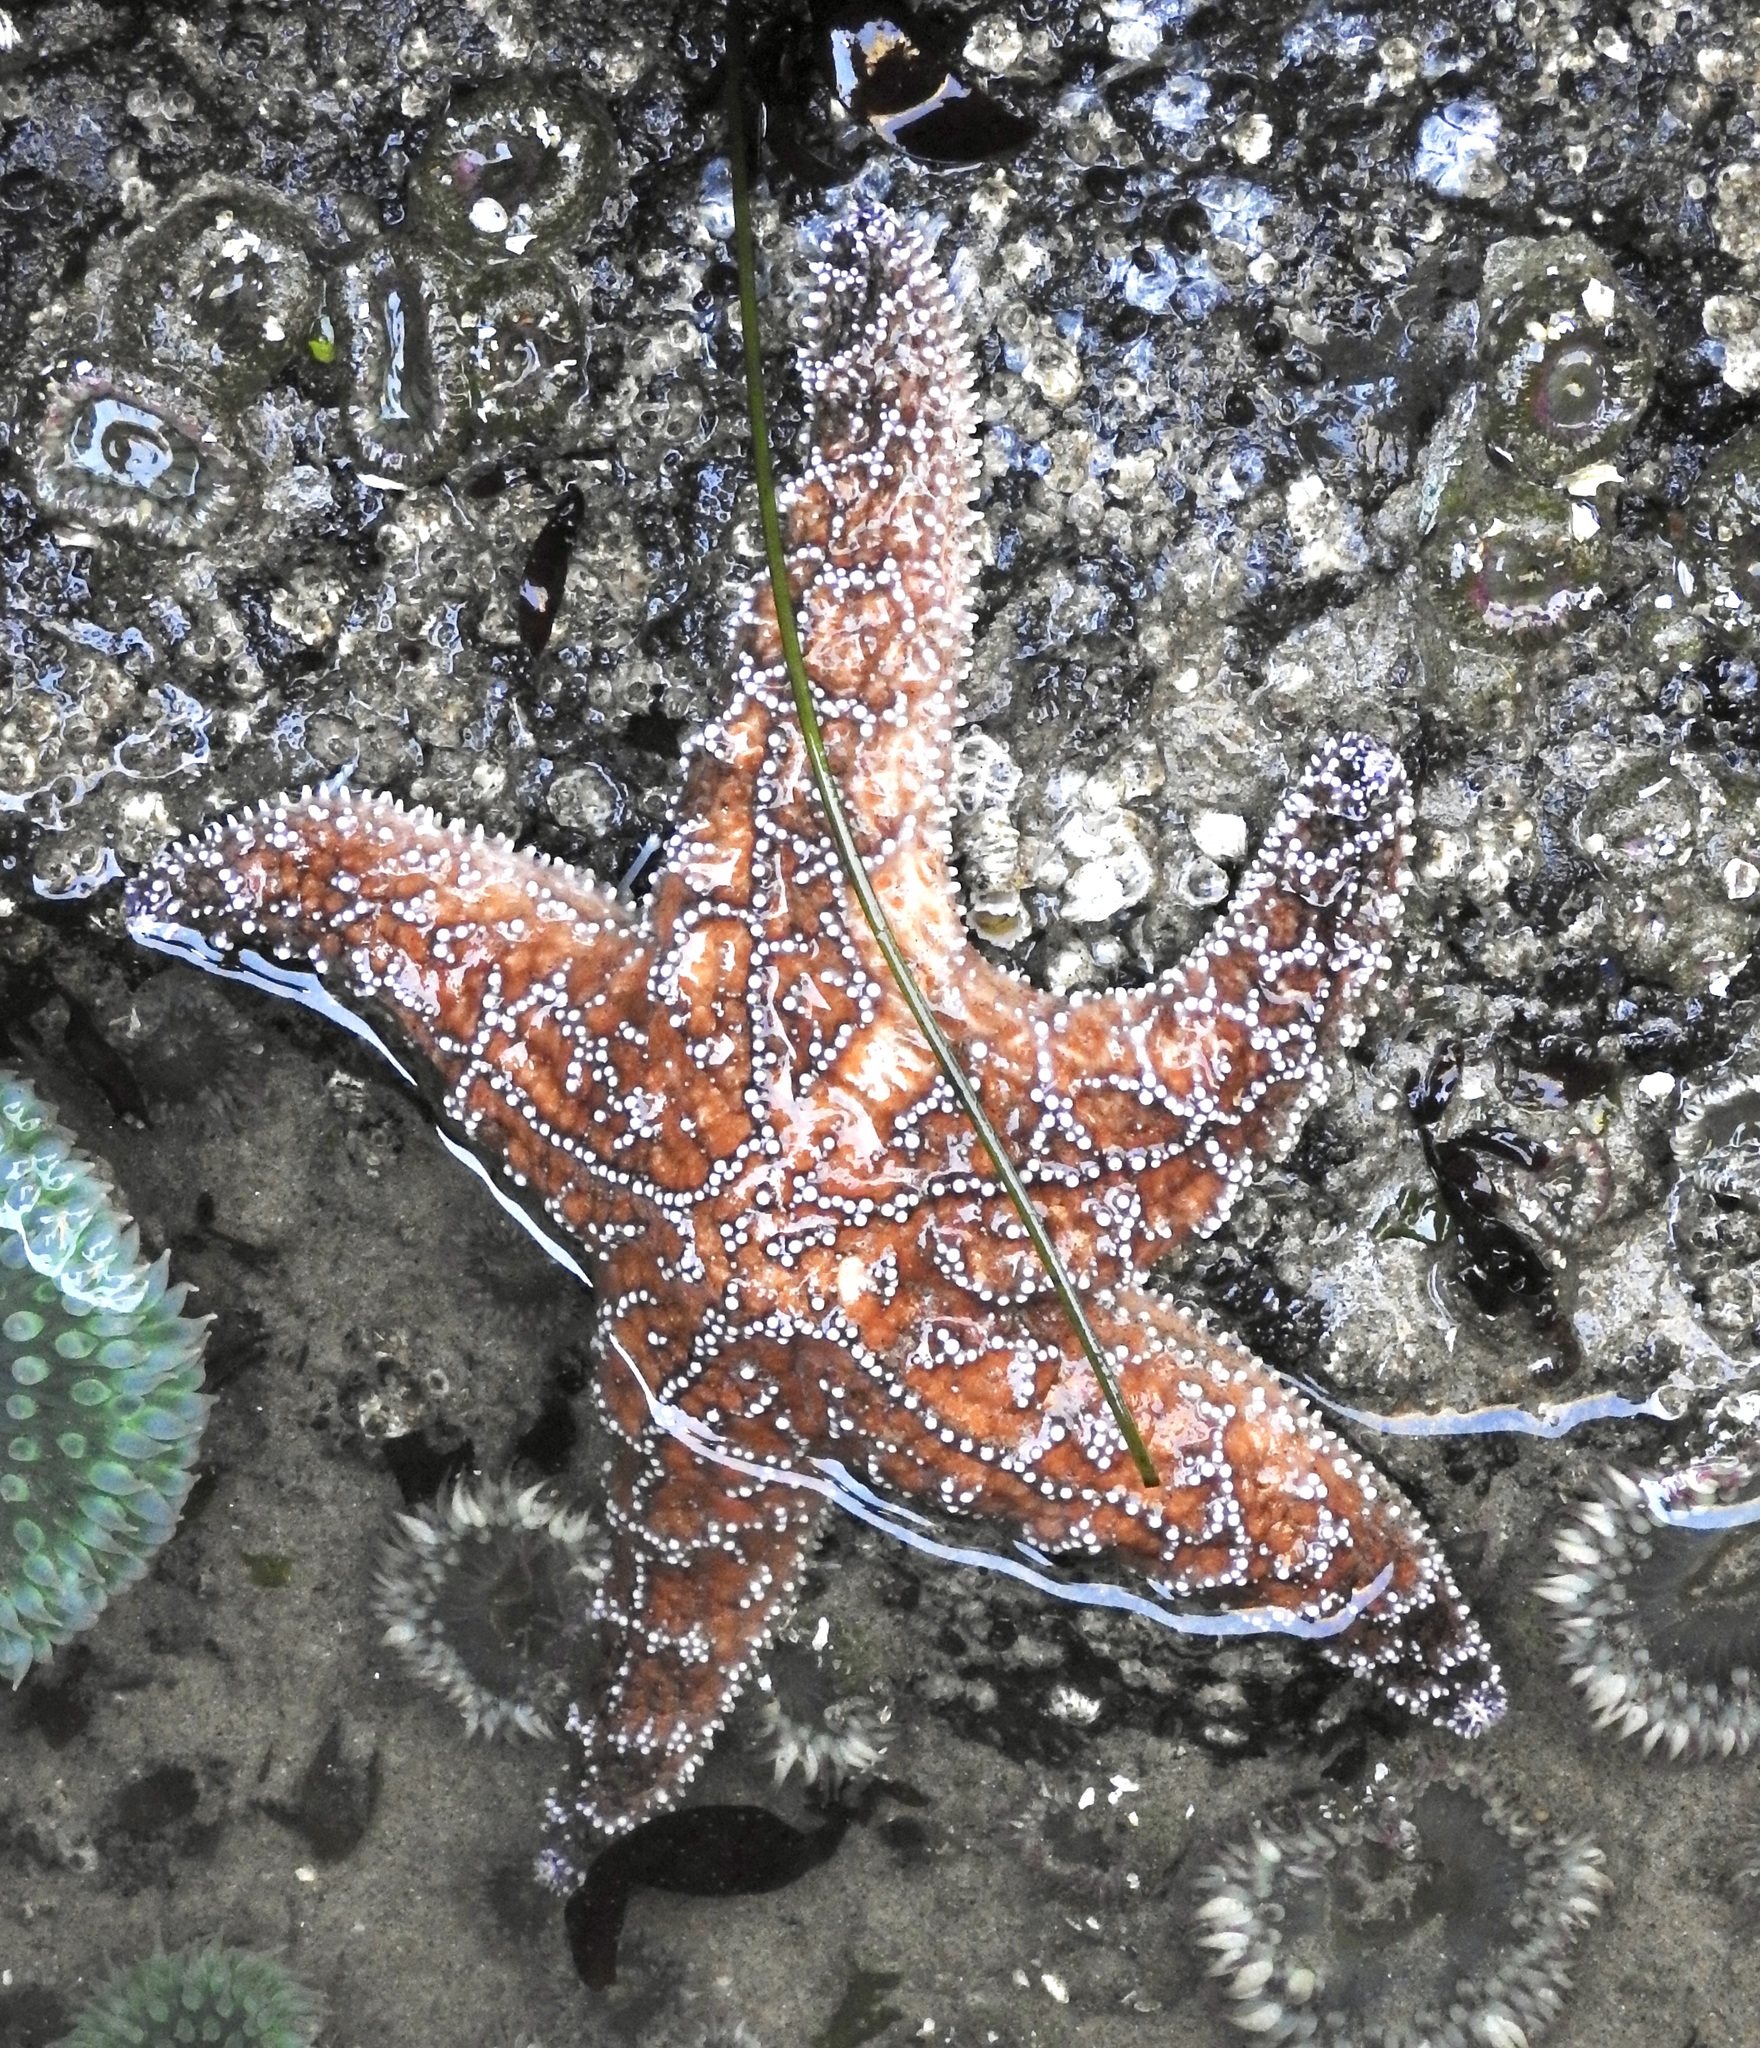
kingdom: Animalia
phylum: Echinodermata
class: Asteroidea
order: Forcipulatida
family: Asteriidae
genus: Pisaster
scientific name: Pisaster ochraceus
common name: Ochre stars
